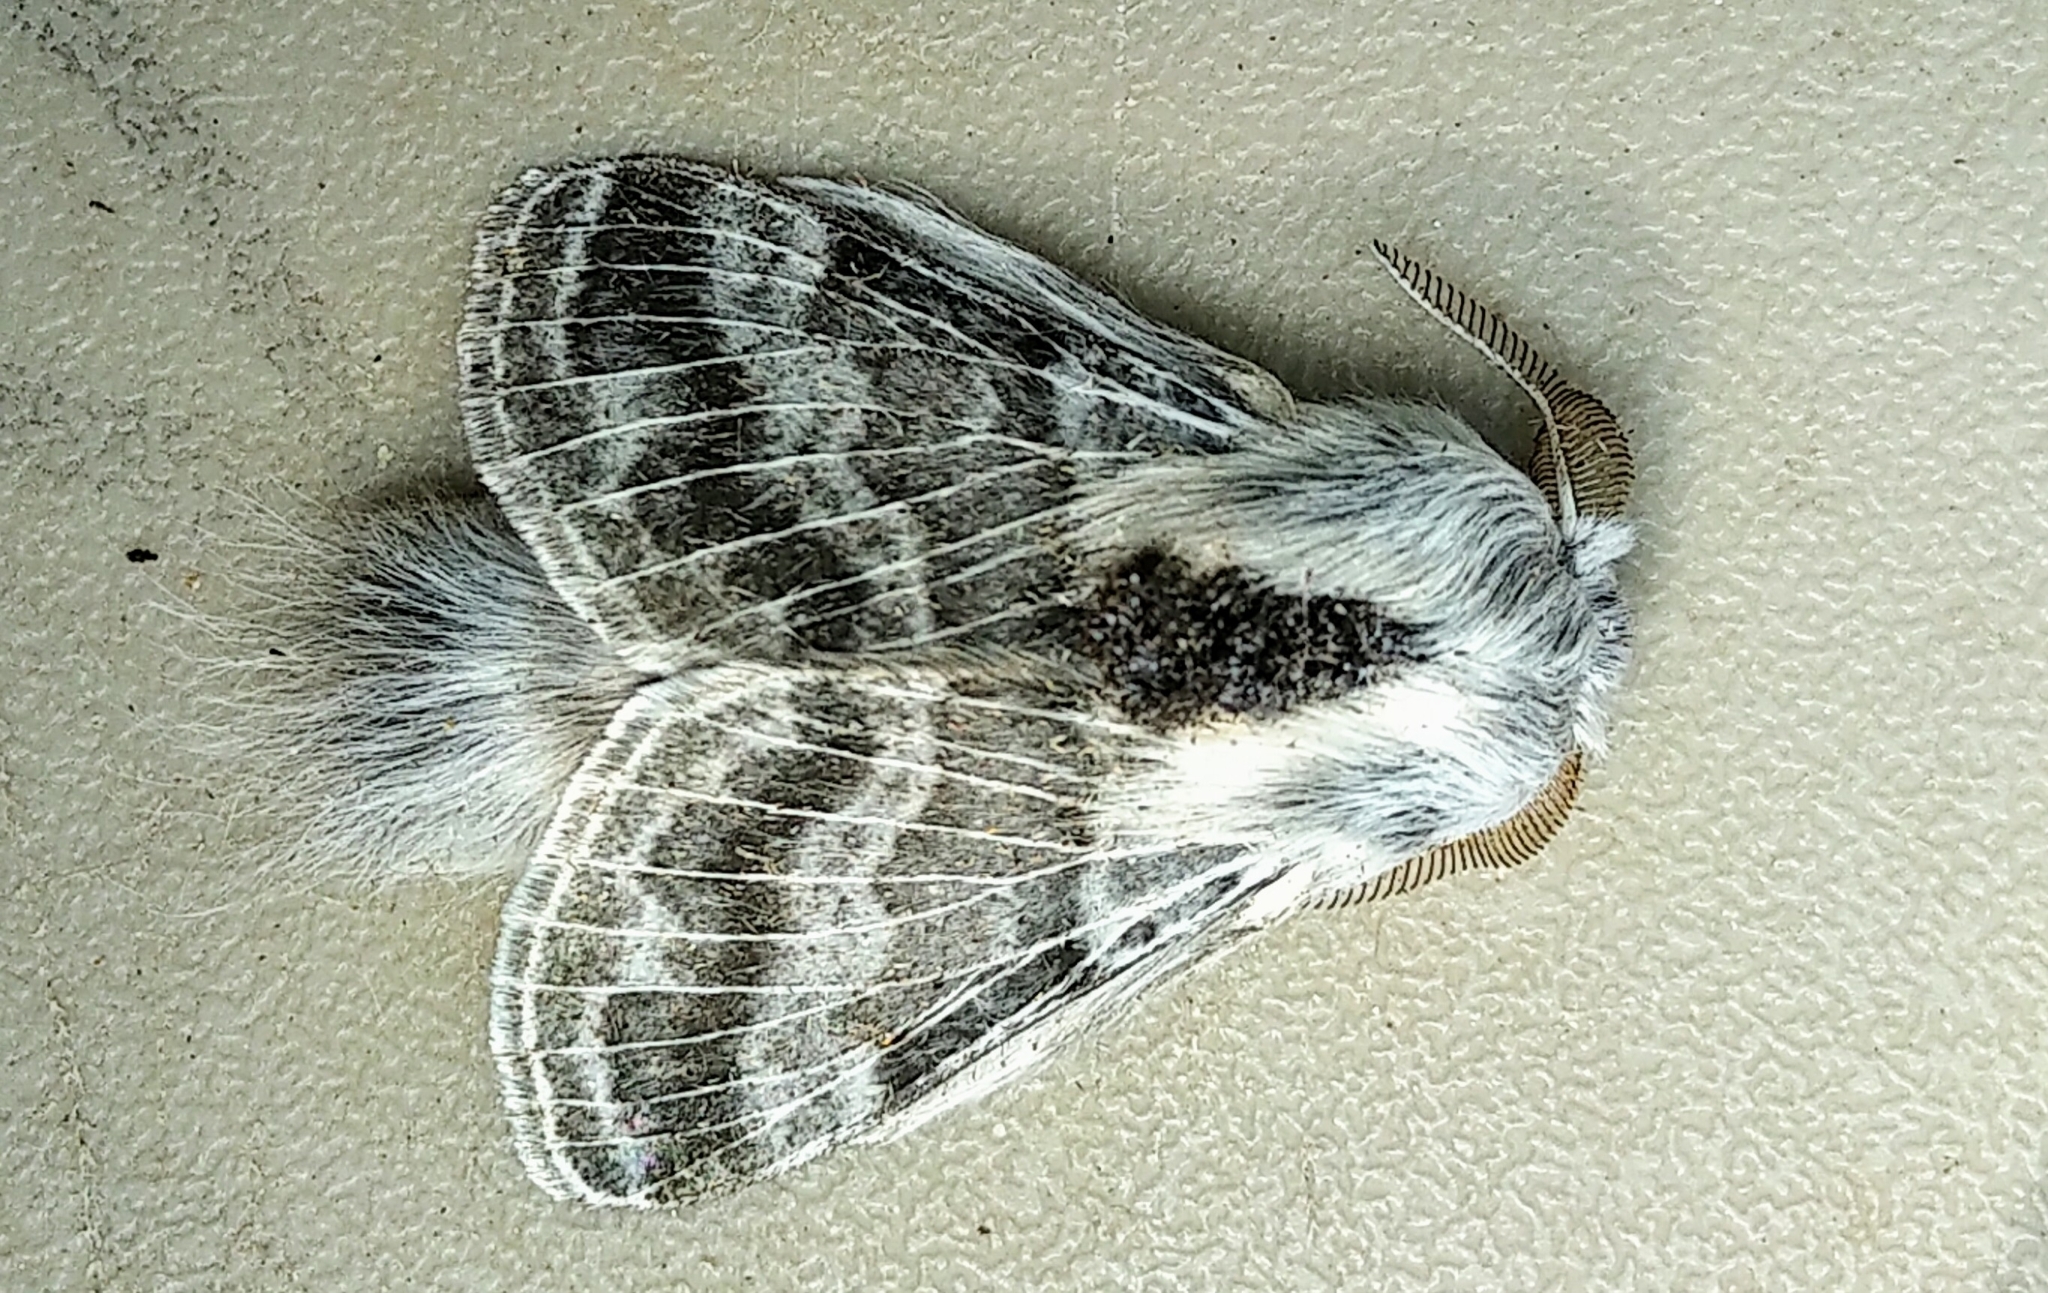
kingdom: Animalia
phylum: Arthropoda
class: Insecta
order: Lepidoptera
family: Lasiocampidae
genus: Tolype
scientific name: Tolype distincta
